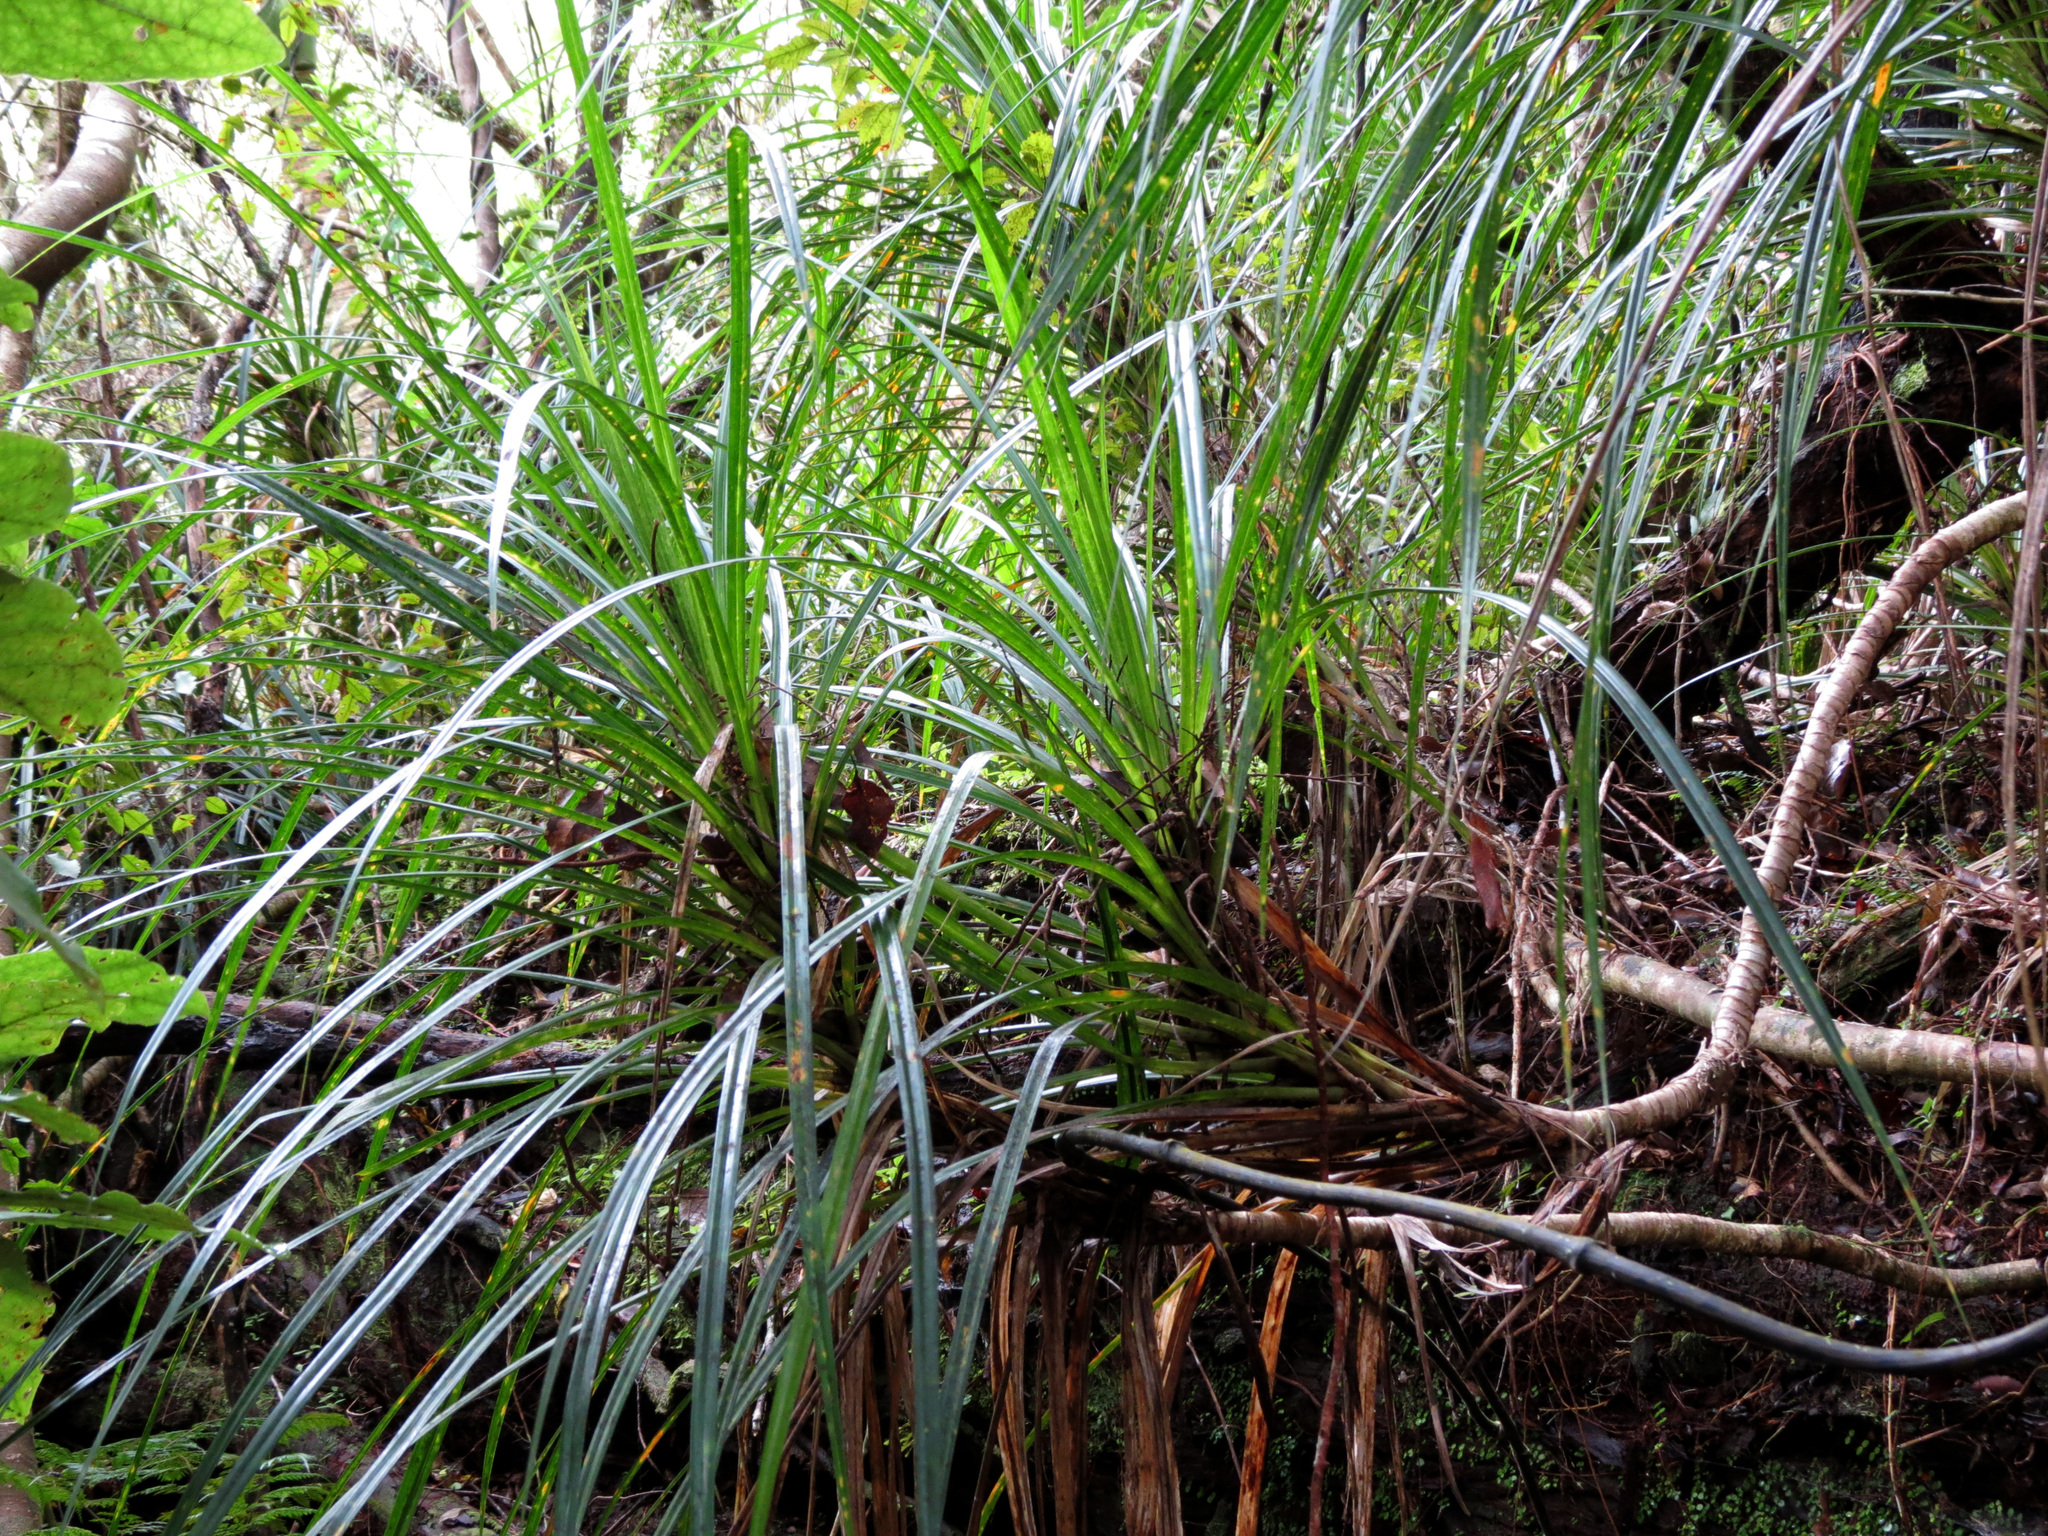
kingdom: Plantae
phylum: Tracheophyta
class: Liliopsida
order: Pandanales
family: Pandanaceae
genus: Freycinetia
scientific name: Freycinetia banksii
